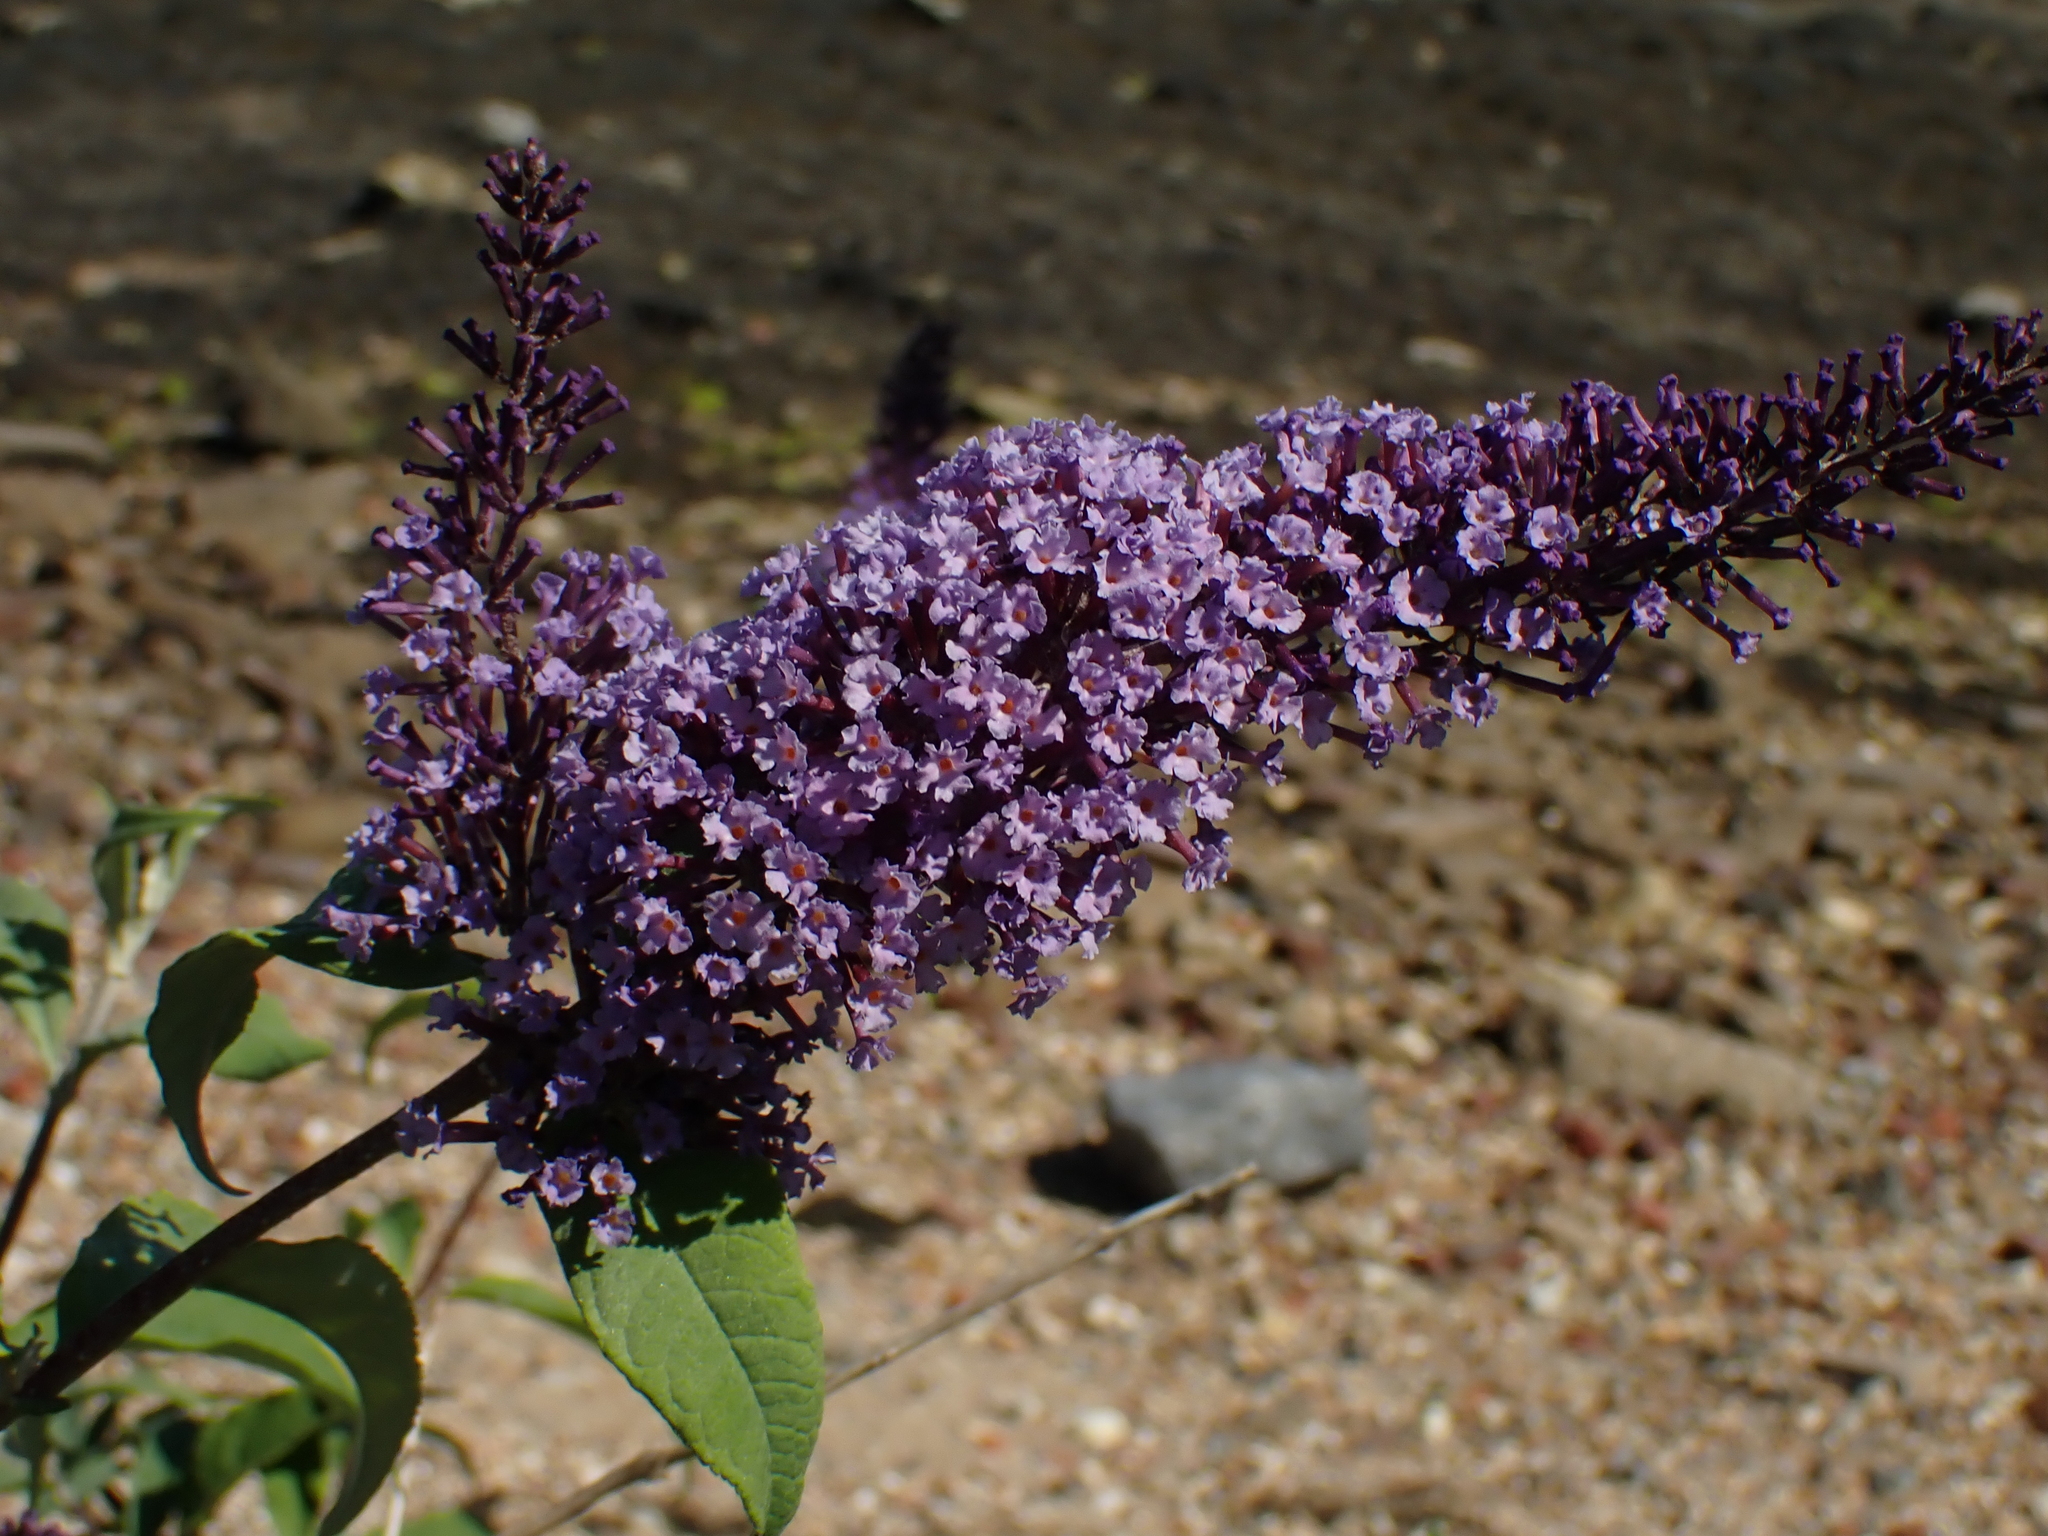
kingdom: Plantae
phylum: Tracheophyta
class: Magnoliopsida
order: Lamiales
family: Scrophulariaceae
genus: Buddleja
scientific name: Buddleja davidii
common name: Butterfly-bush
